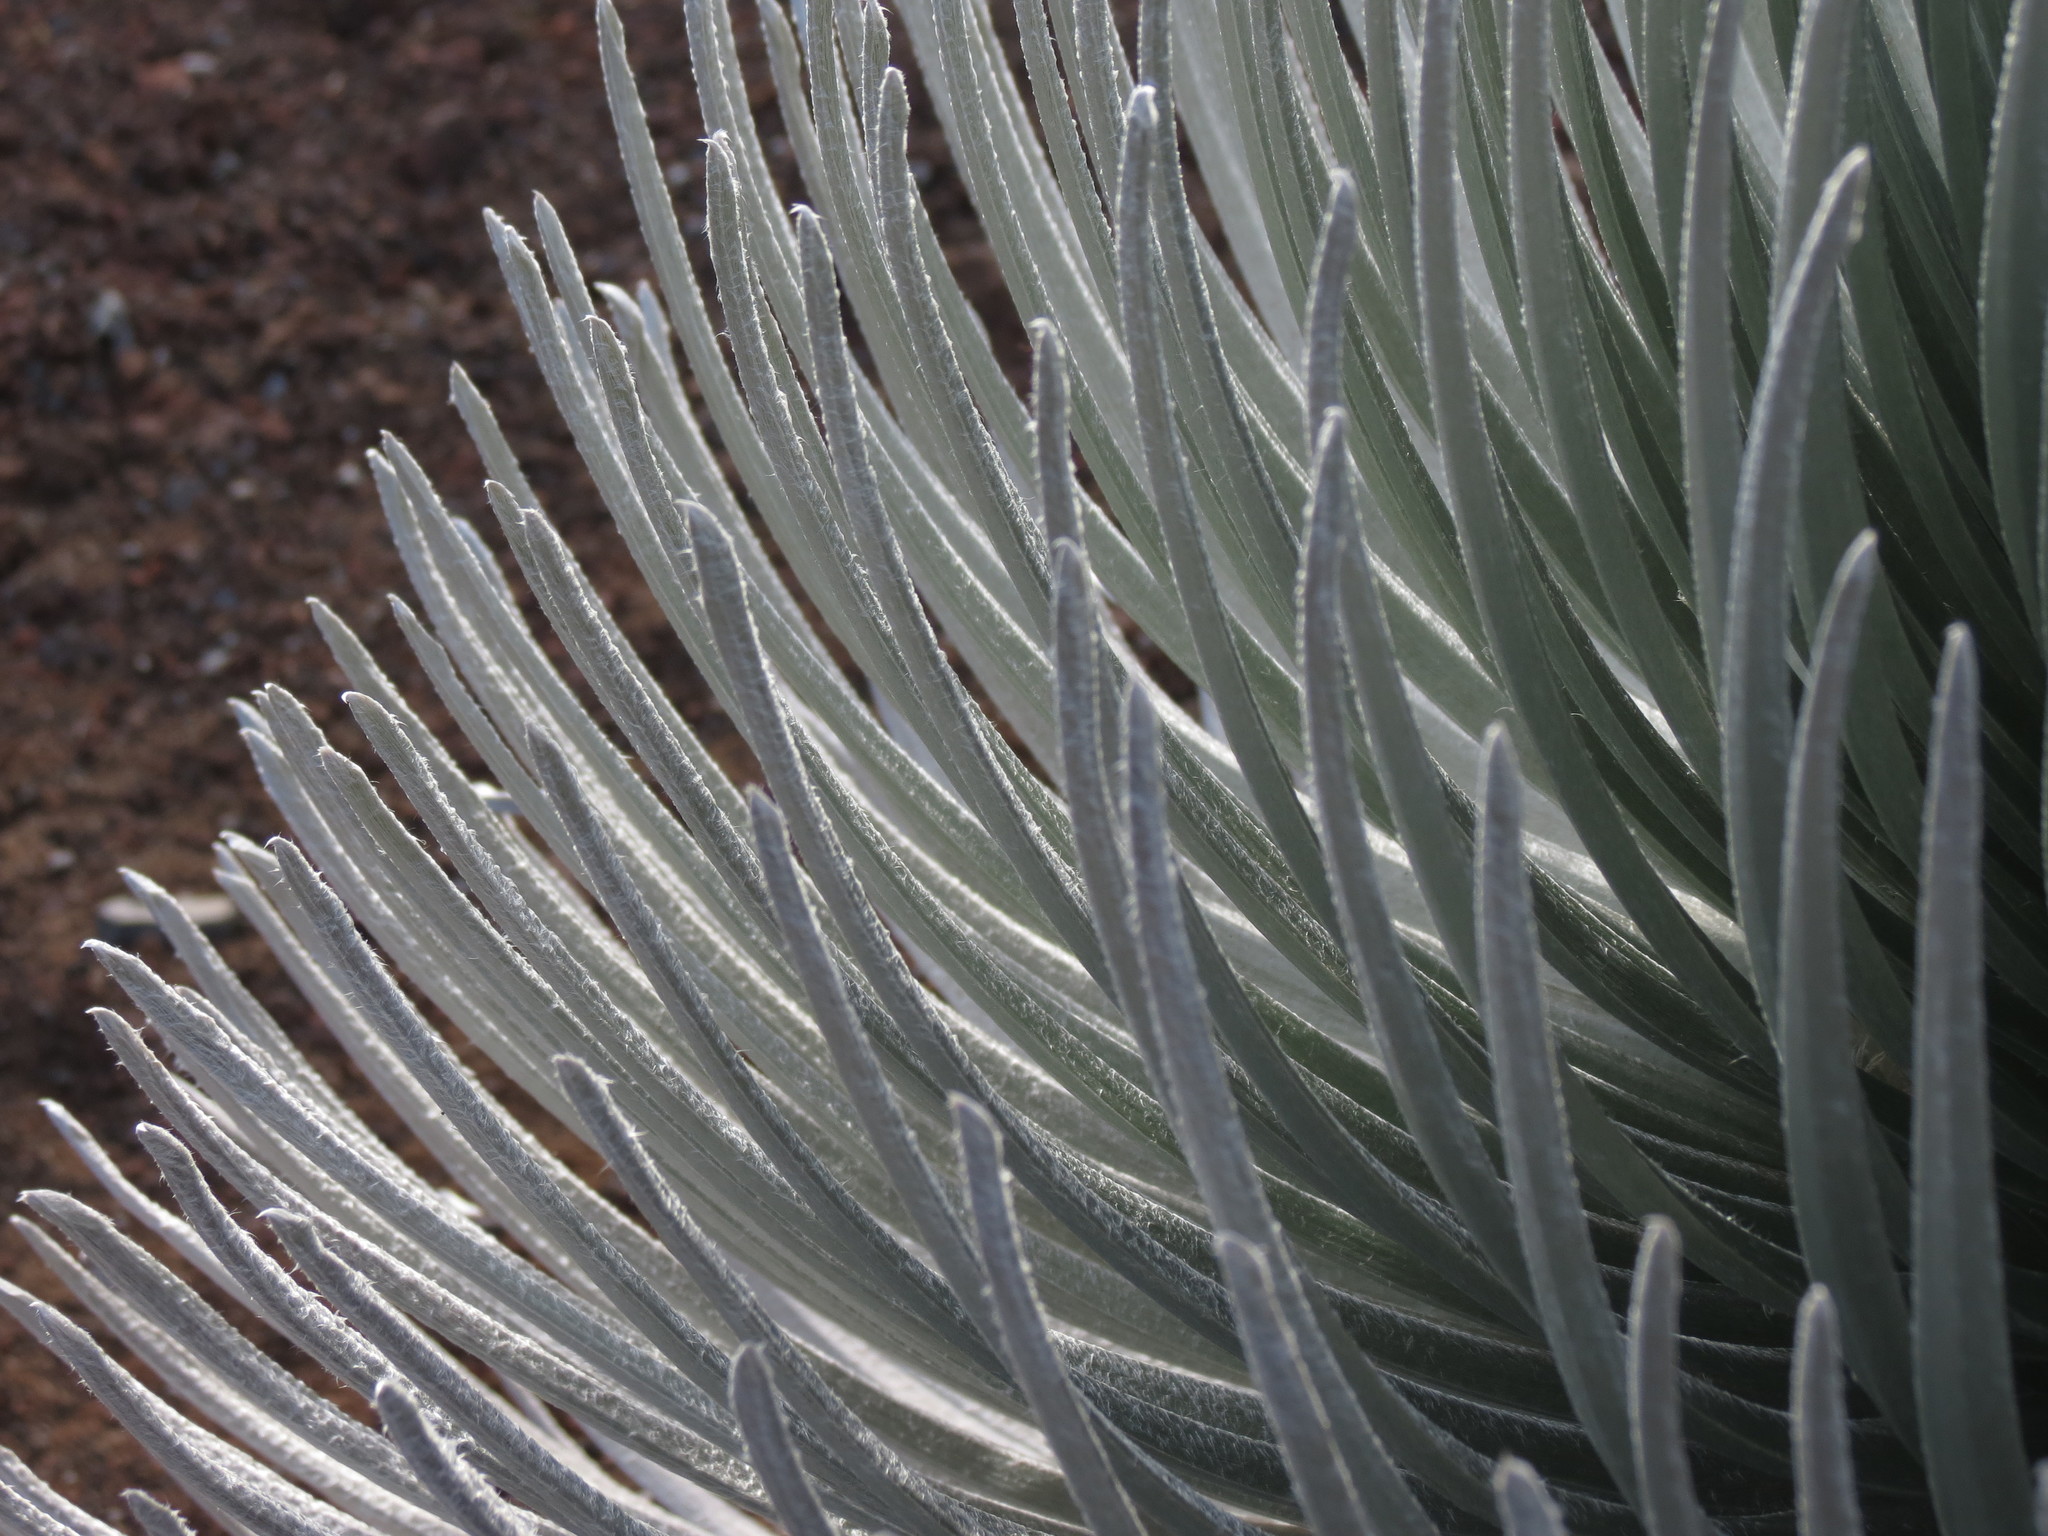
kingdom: Plantae
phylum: Tracheophyta
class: Magnoliopsida
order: Asterales
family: Asteraceae
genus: Argyroxiphium
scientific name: Argyroxiphium sandwicense
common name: Silversword
